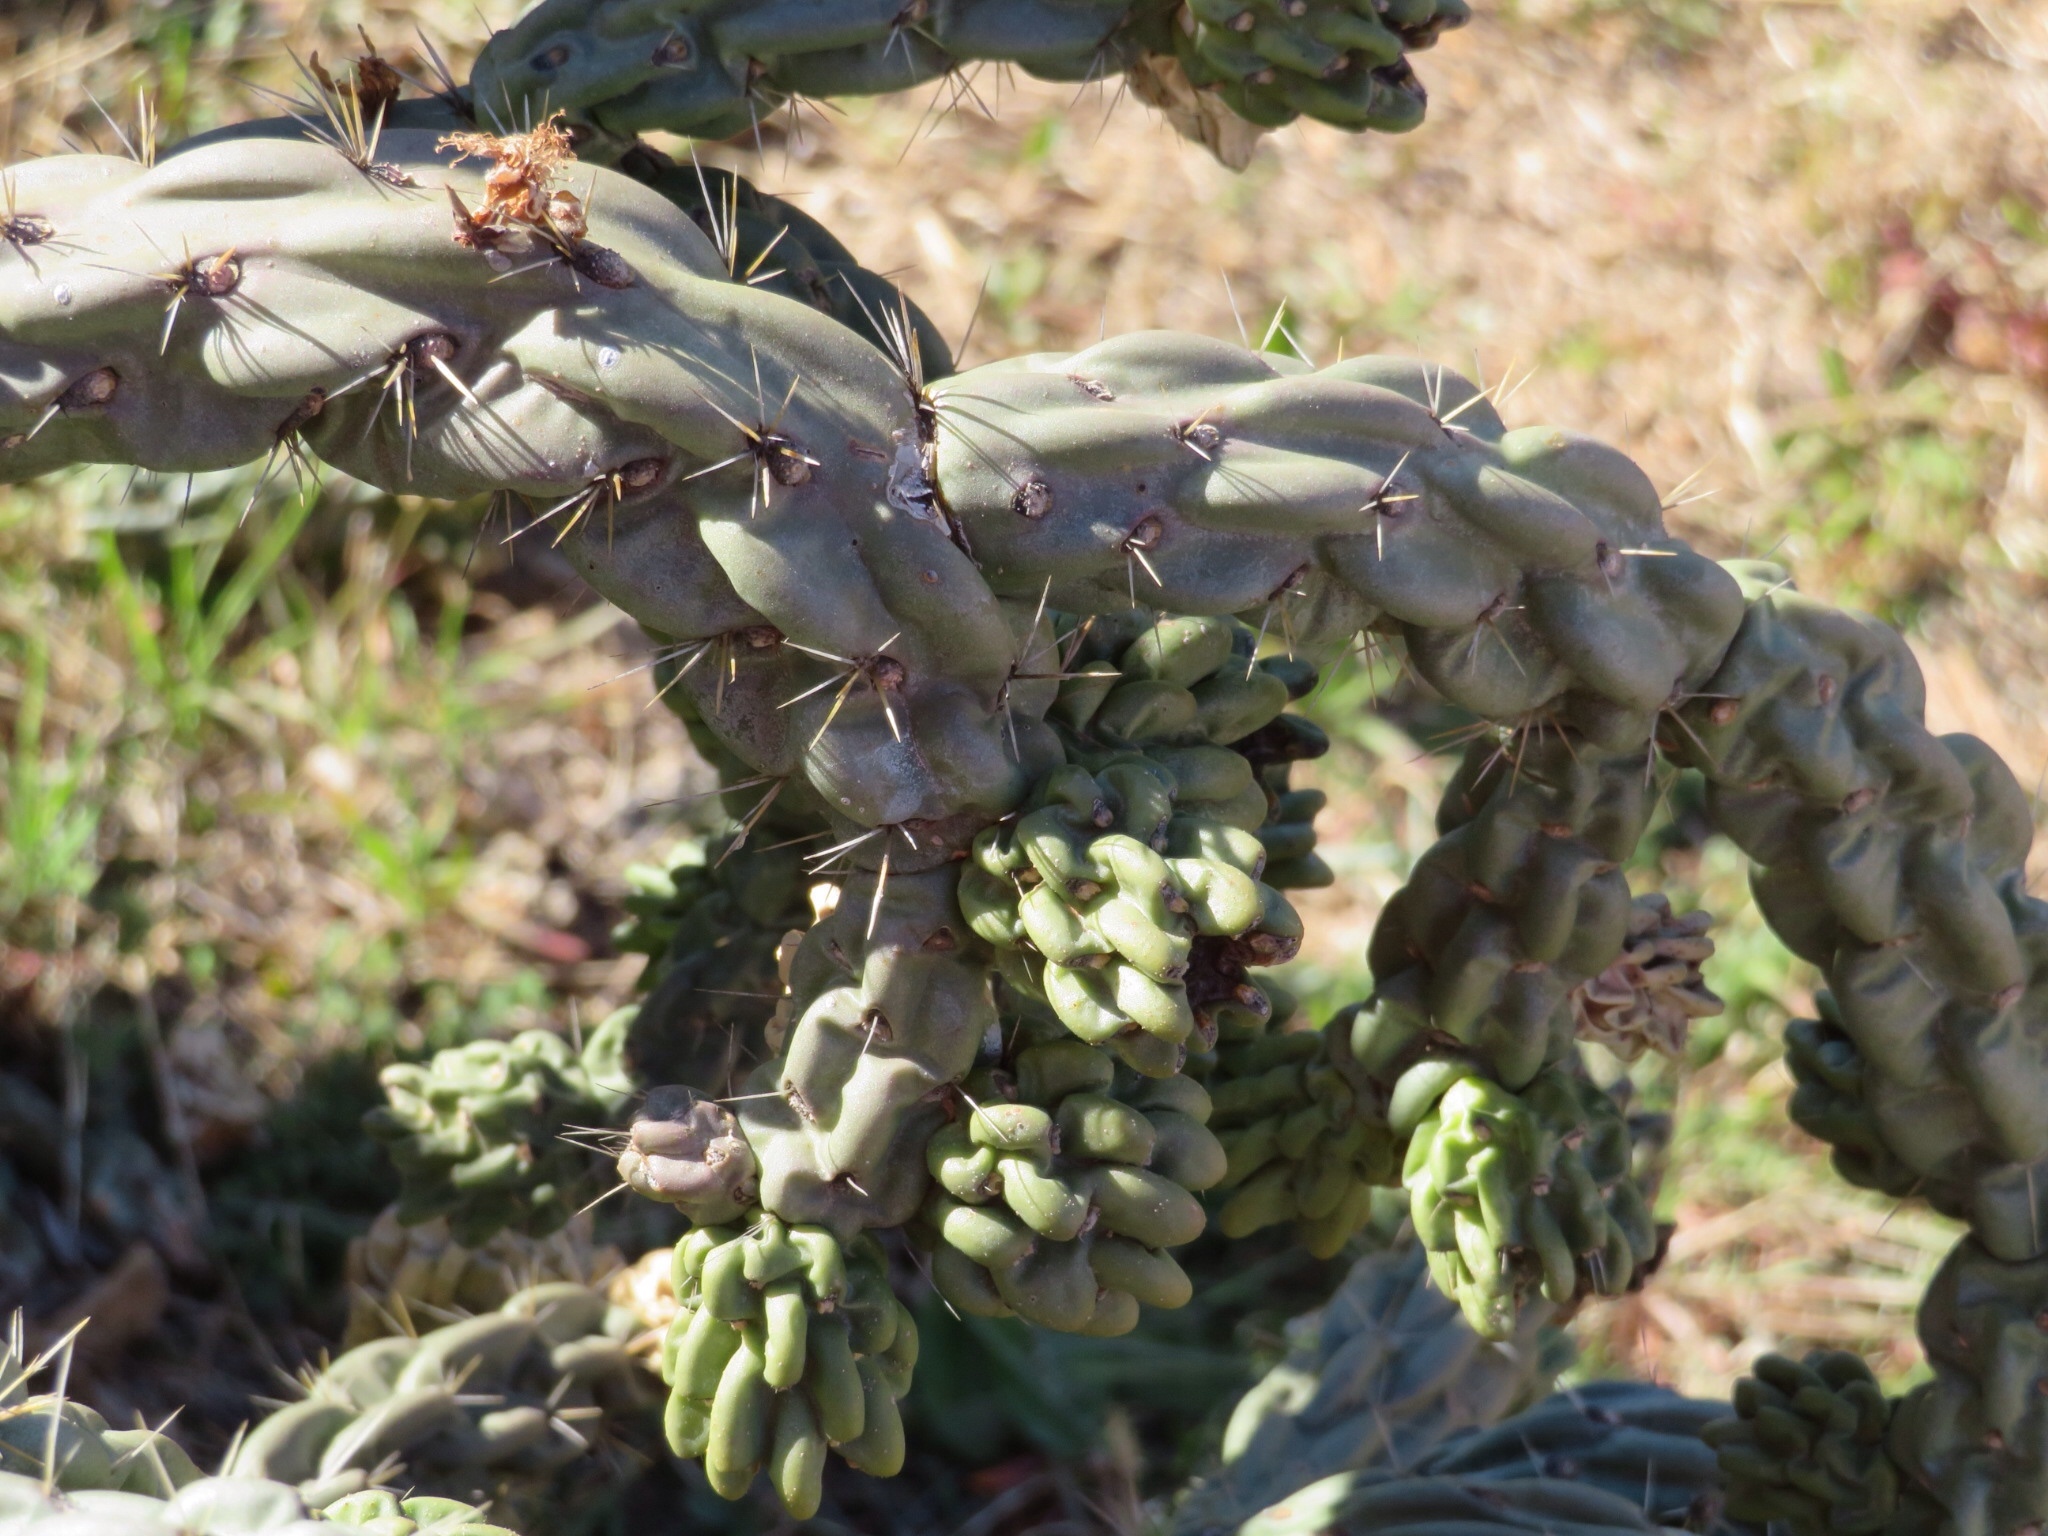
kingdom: Plantae
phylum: Tracheophyta
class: Magnoliopsida
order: Caryophyllales
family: Cactaceae
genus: Cylindropuntia
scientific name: Cylindropuntia imbricata
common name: Candelabrum cactus
